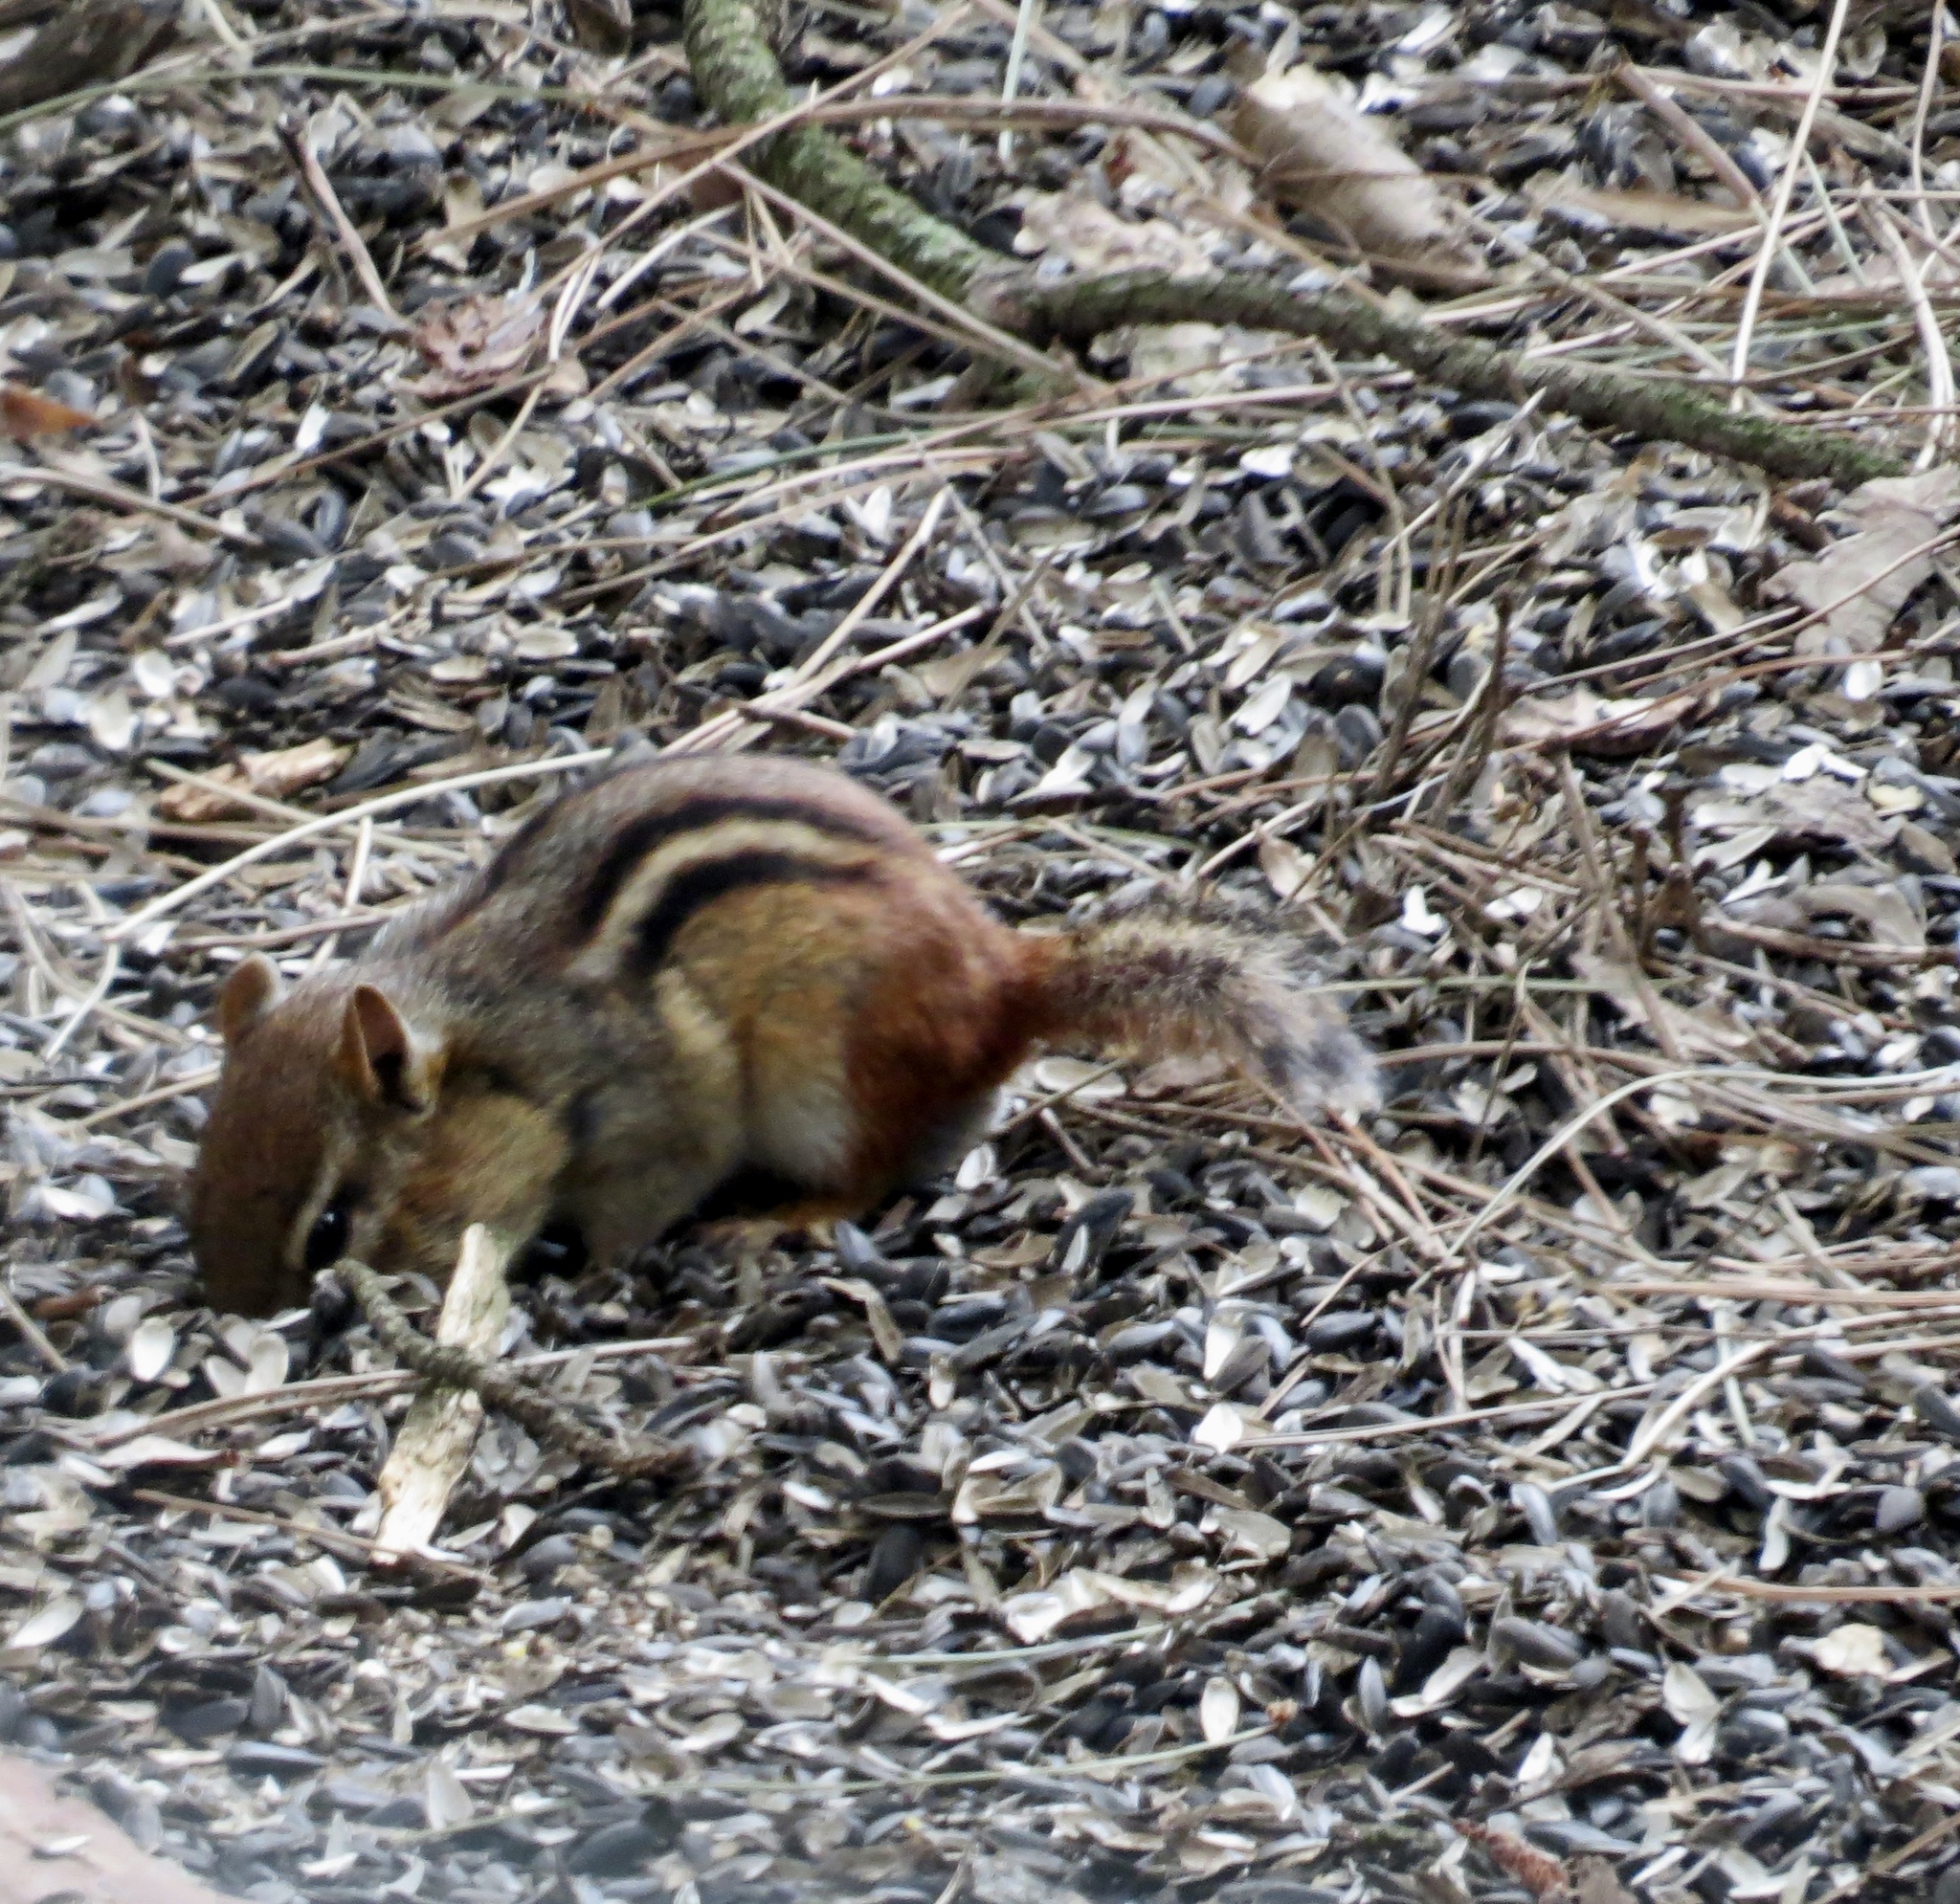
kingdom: Animalia
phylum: Chordata
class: Mammalia
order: Rodentia
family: Sciuridae
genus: Tamias
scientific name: Tamias striatus
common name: Eastern chipmunk
